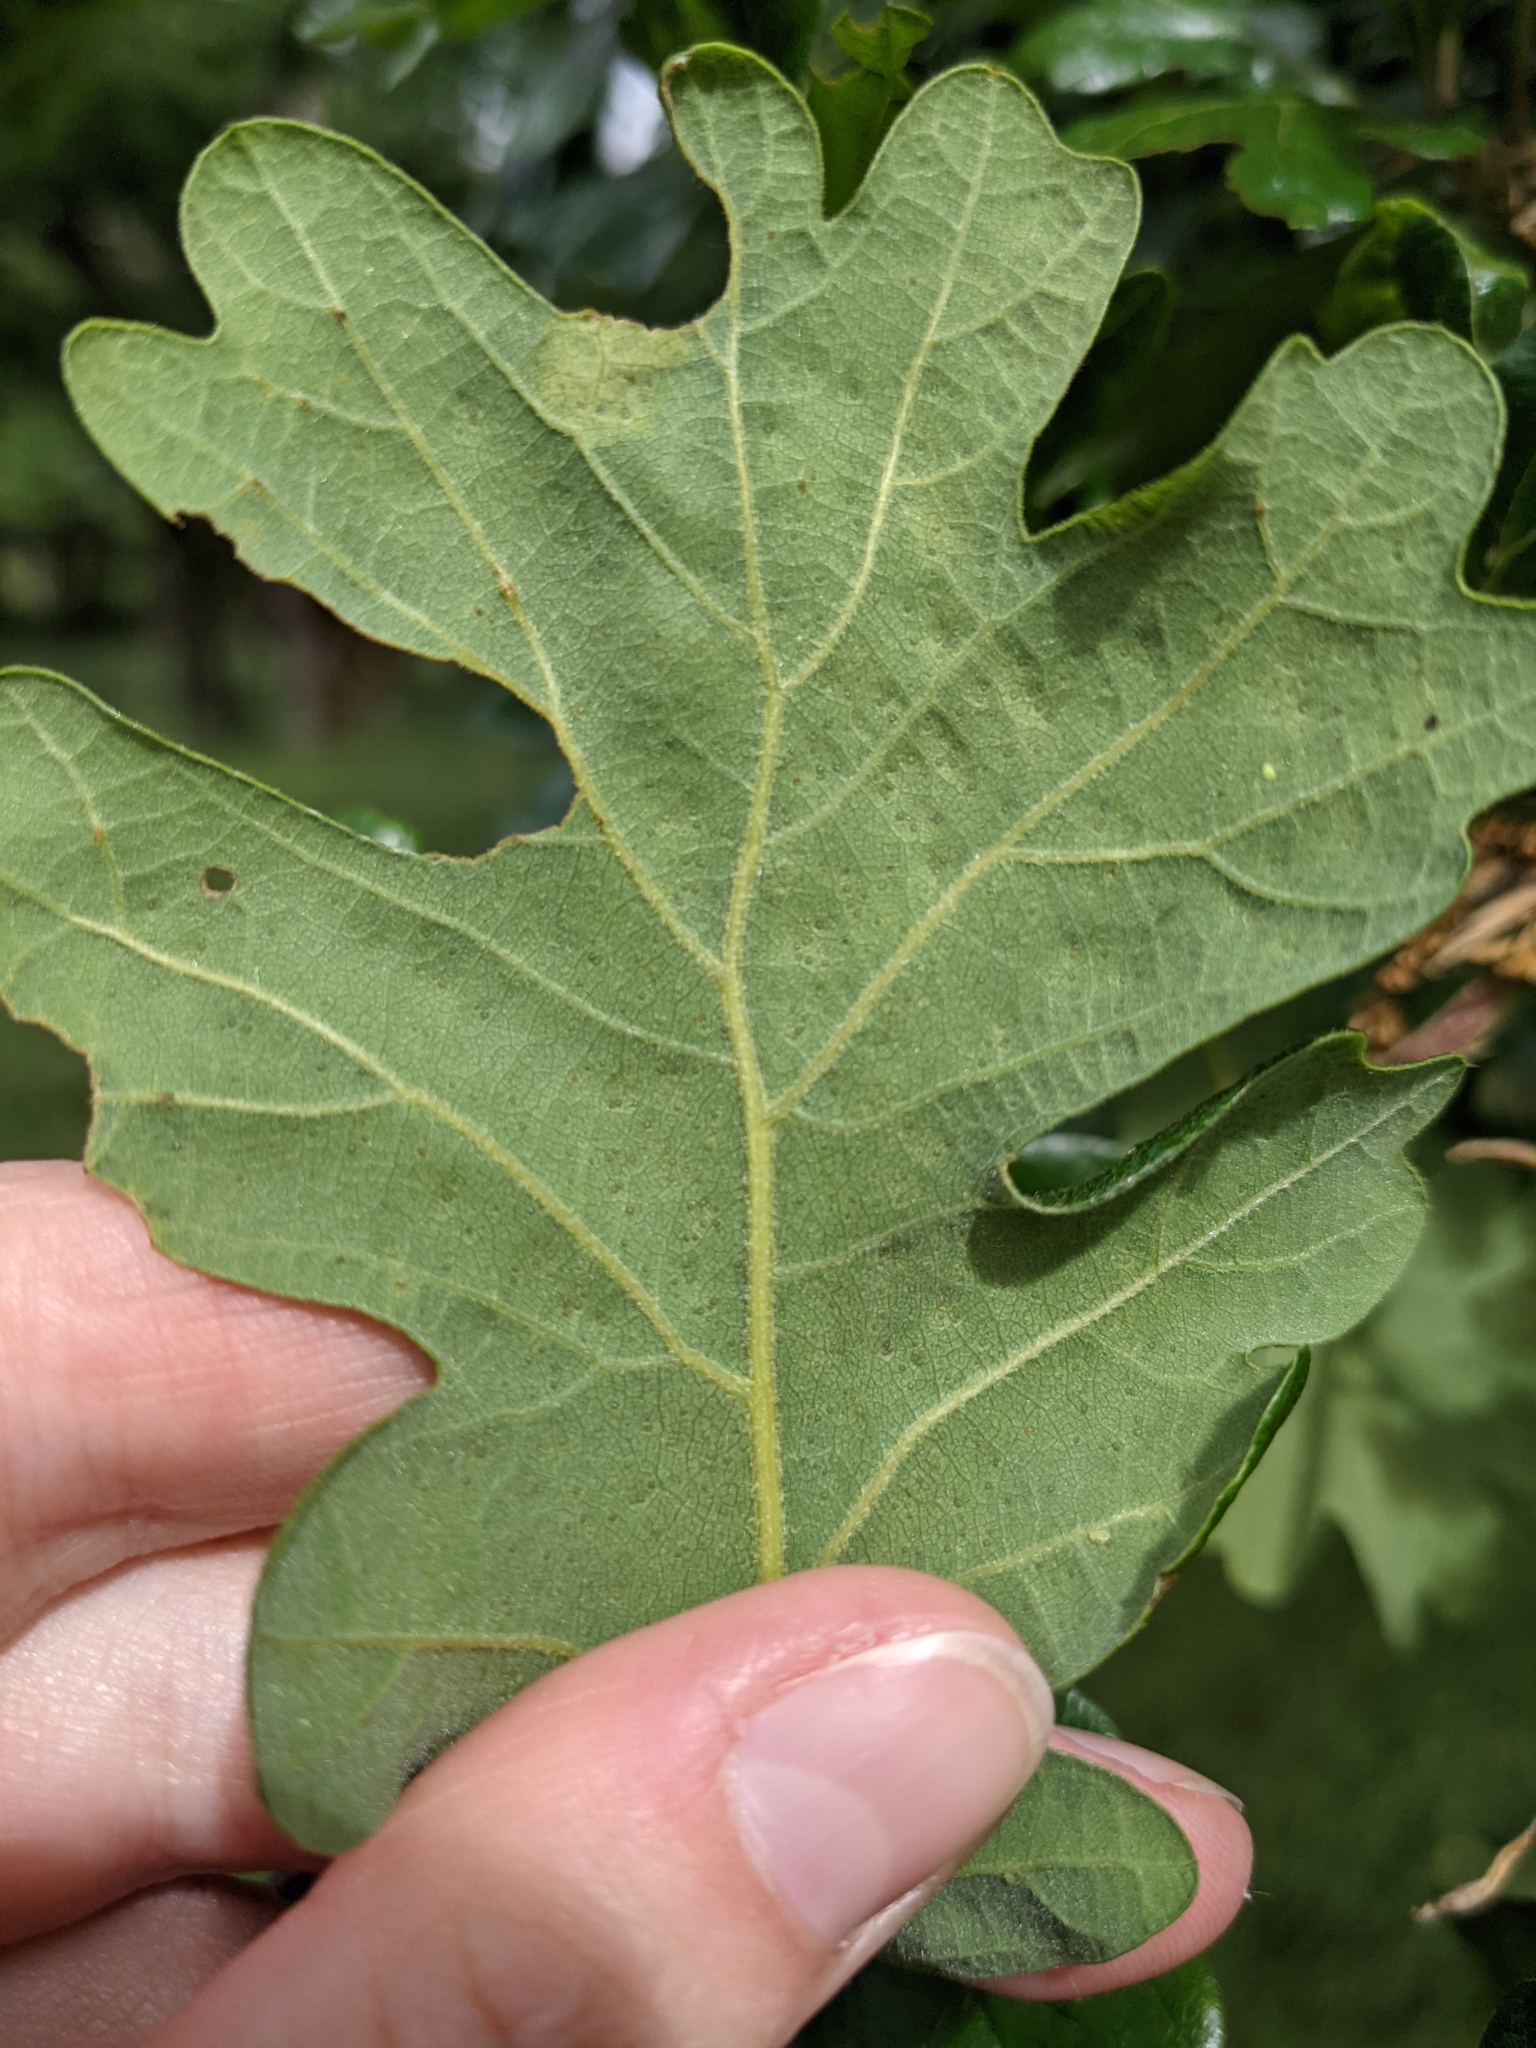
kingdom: Plantae
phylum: Tracheophyta
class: Magnoliopsida
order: Fagales
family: Fagaceae
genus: Quercus
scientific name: Quercus garryana
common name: Garry oak
